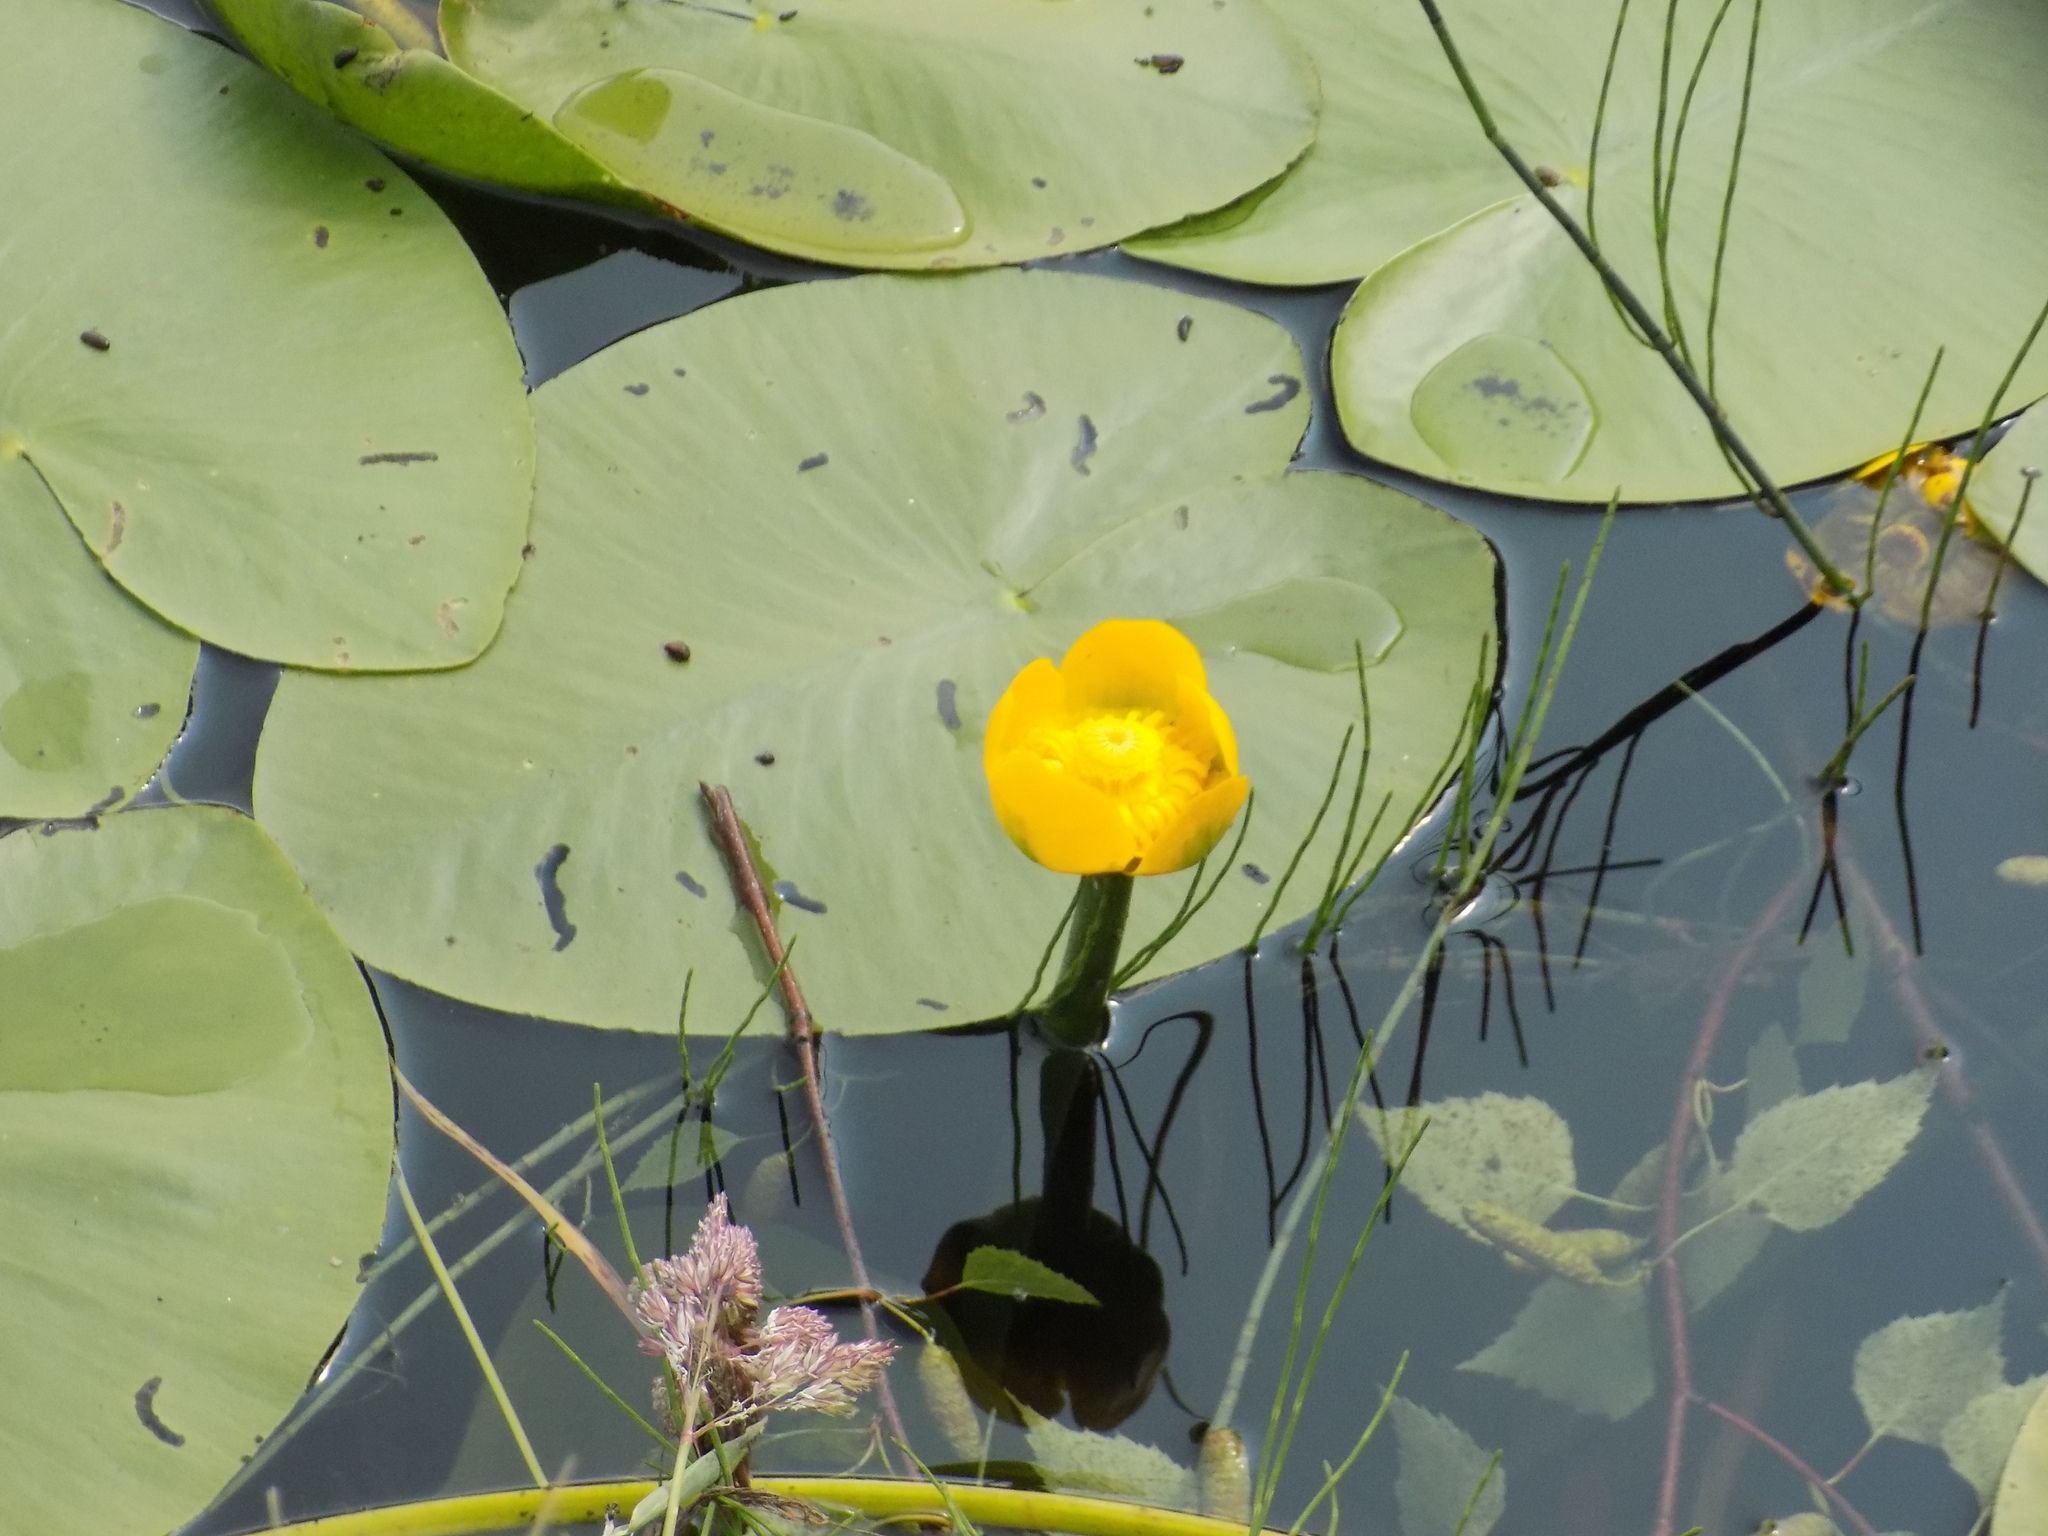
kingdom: Plantae
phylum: Tracheophyta
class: Magnoliopsida
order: Nymphaeales
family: Nymphaeaceae
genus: Nuphar
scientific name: Nuphar lutea
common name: Yellow water-lily
